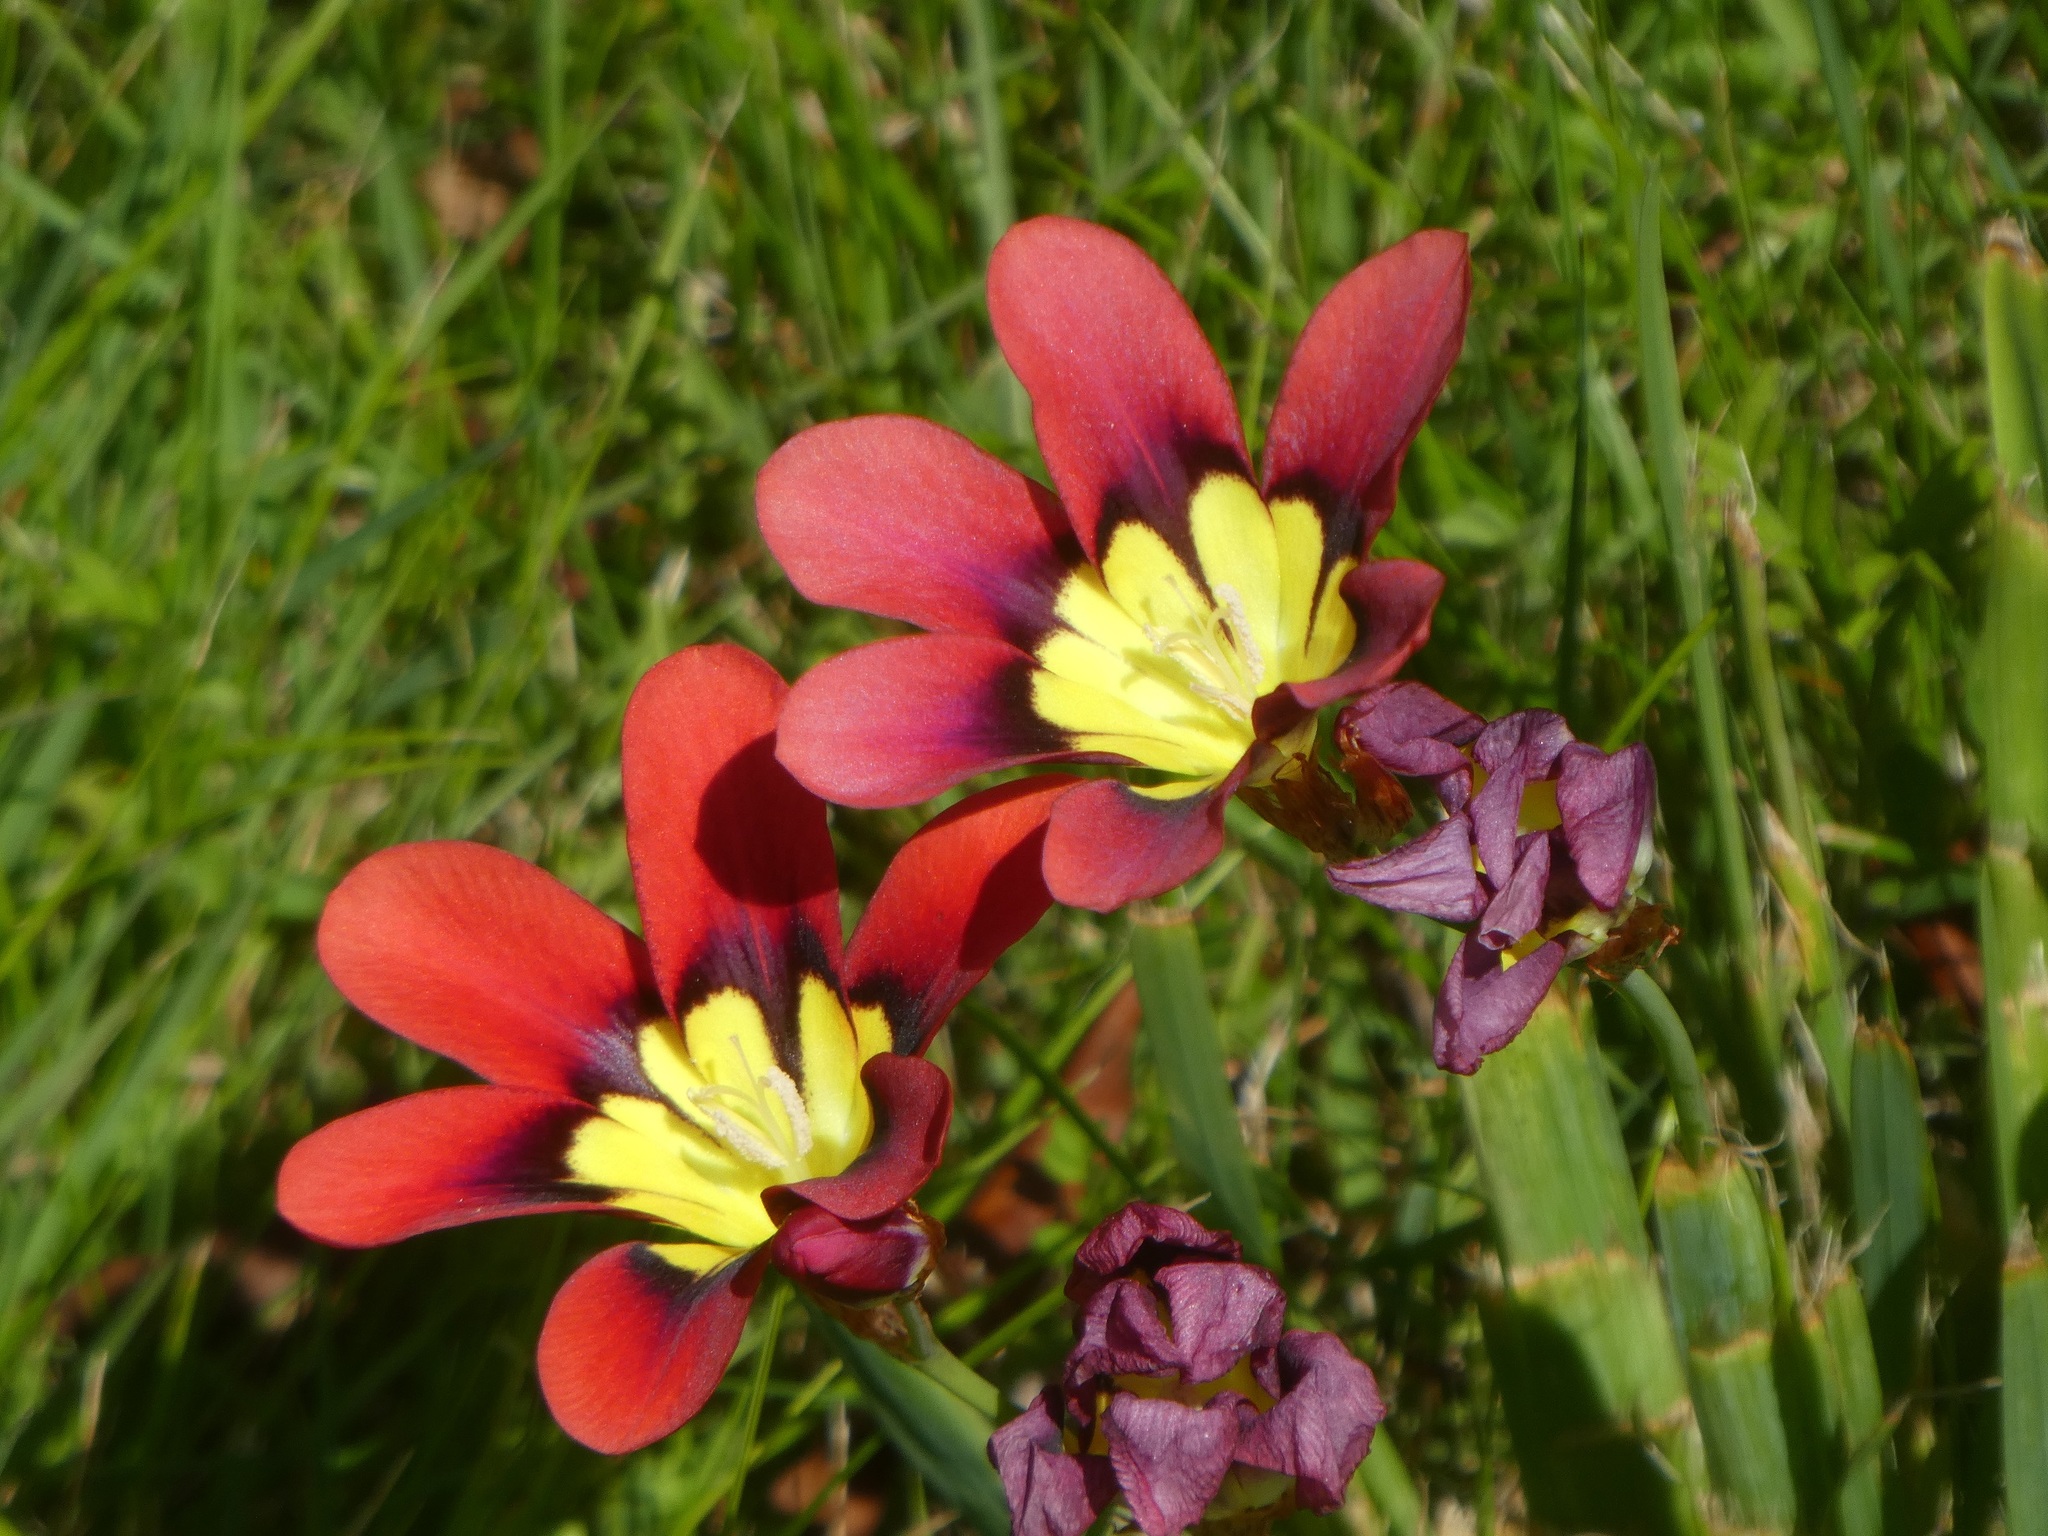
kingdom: Plantae
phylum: Tracheophyta
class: Liliopsida
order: Asparagales
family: Iridaceae
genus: Sparaxis
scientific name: Sparaxis tricolor
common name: Wandflower
